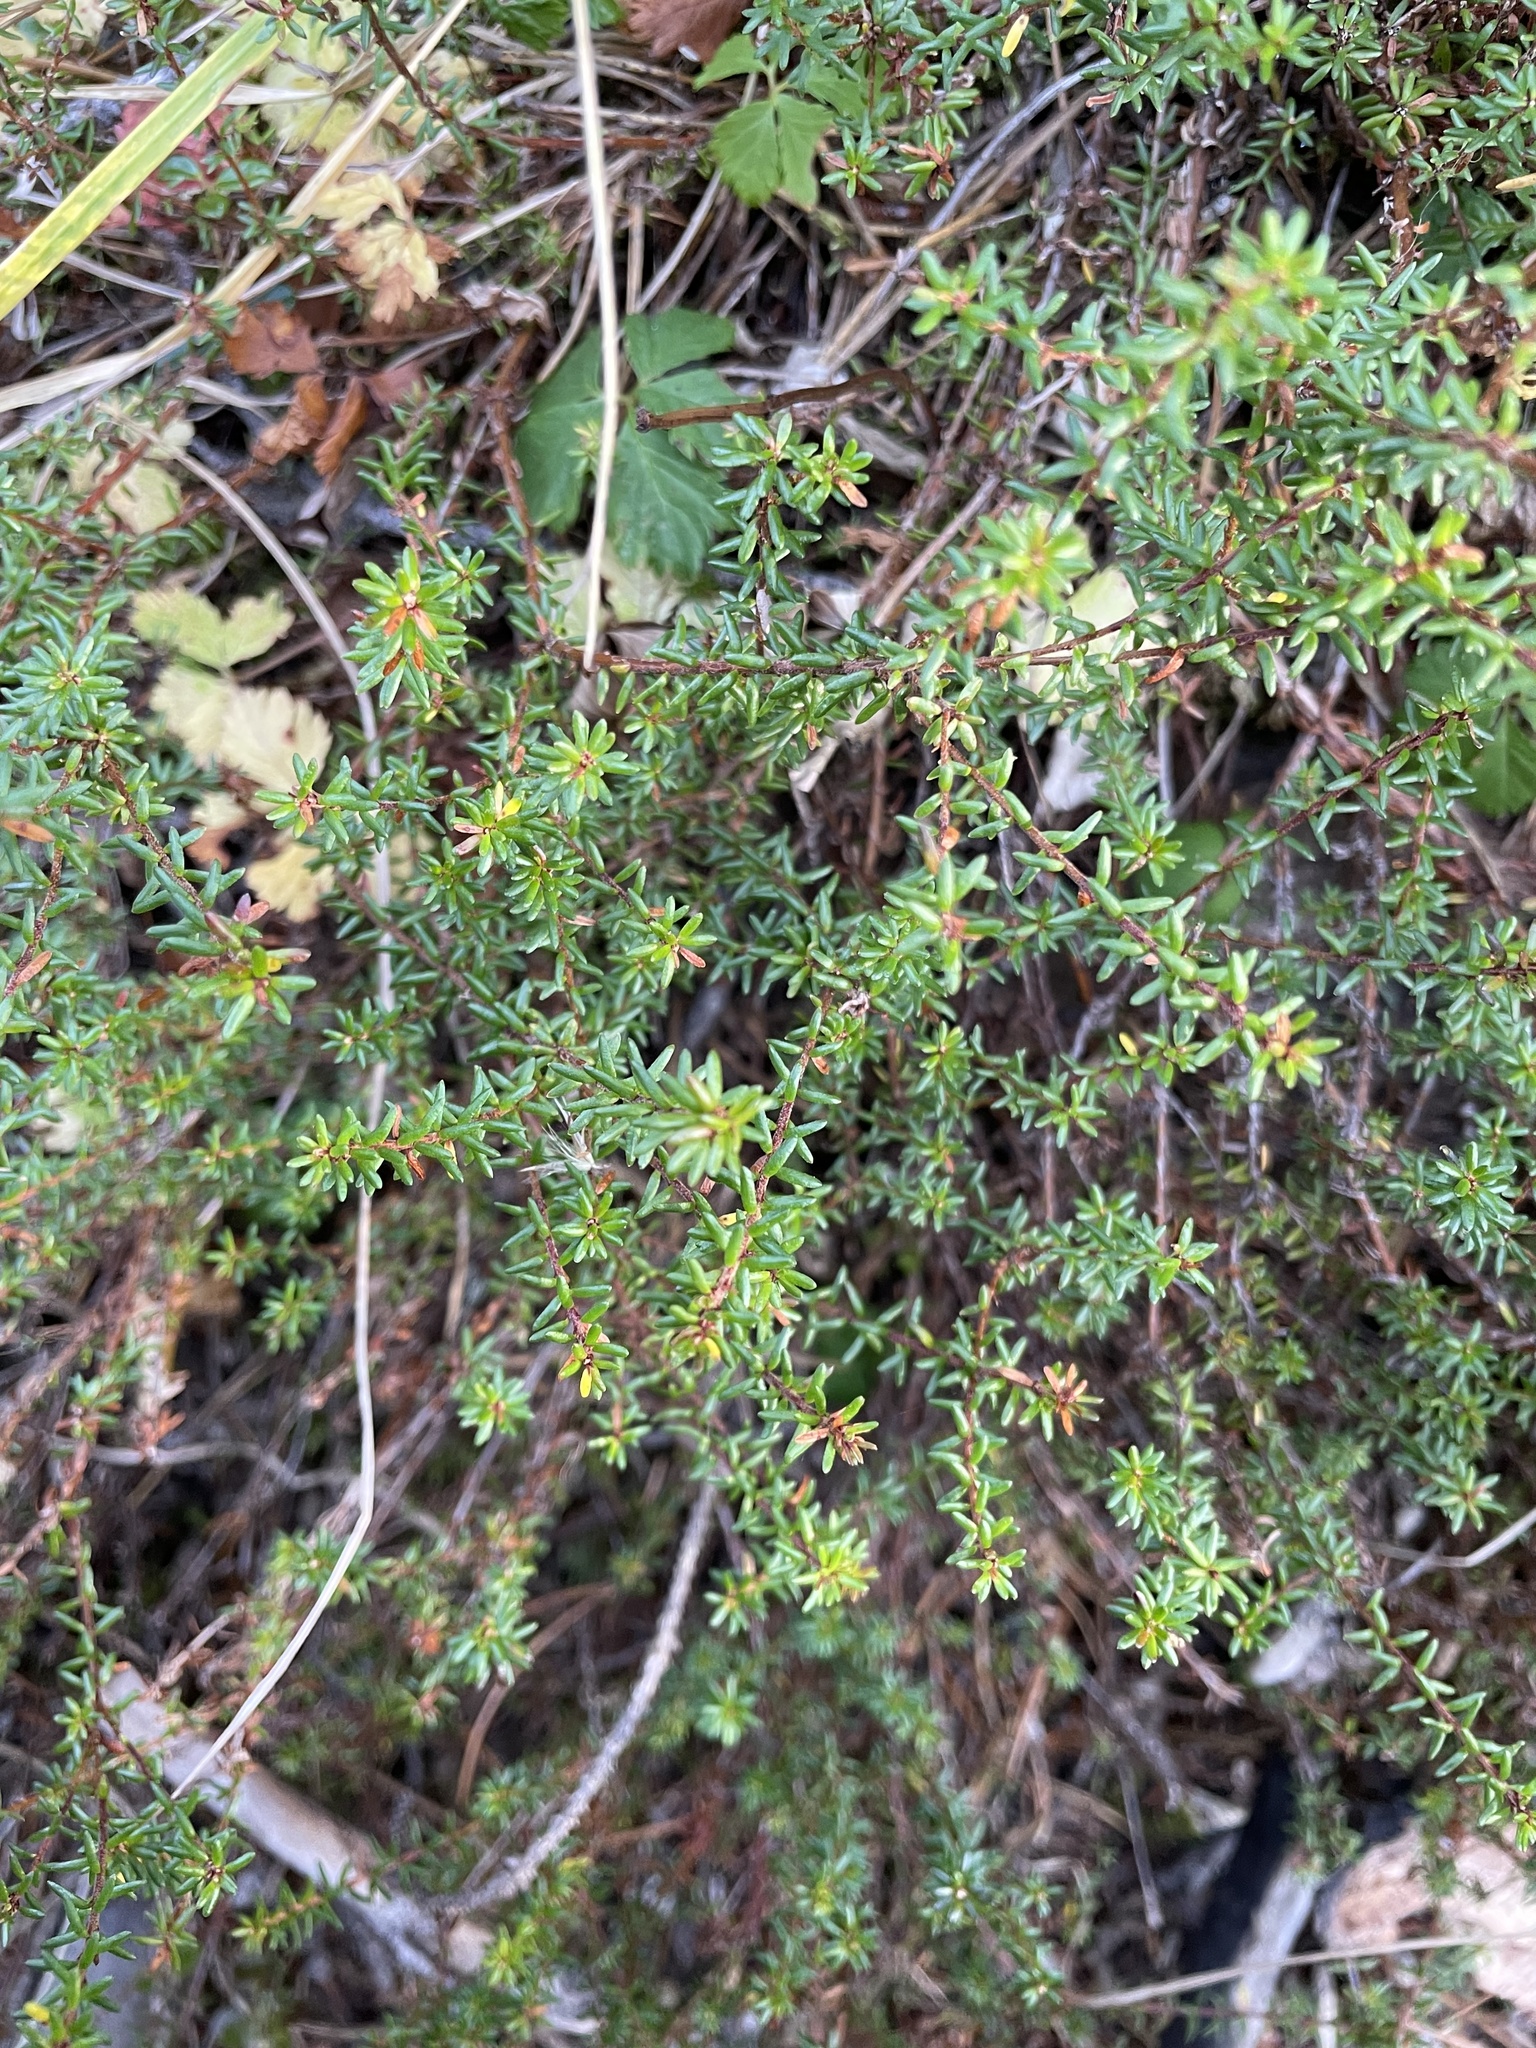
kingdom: Plantae
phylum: Tracheophyta
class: Magnoliopsida
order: Ericales
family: Ericaceae
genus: Empetrum
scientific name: Empetrum nigrum
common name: Black crowberry
